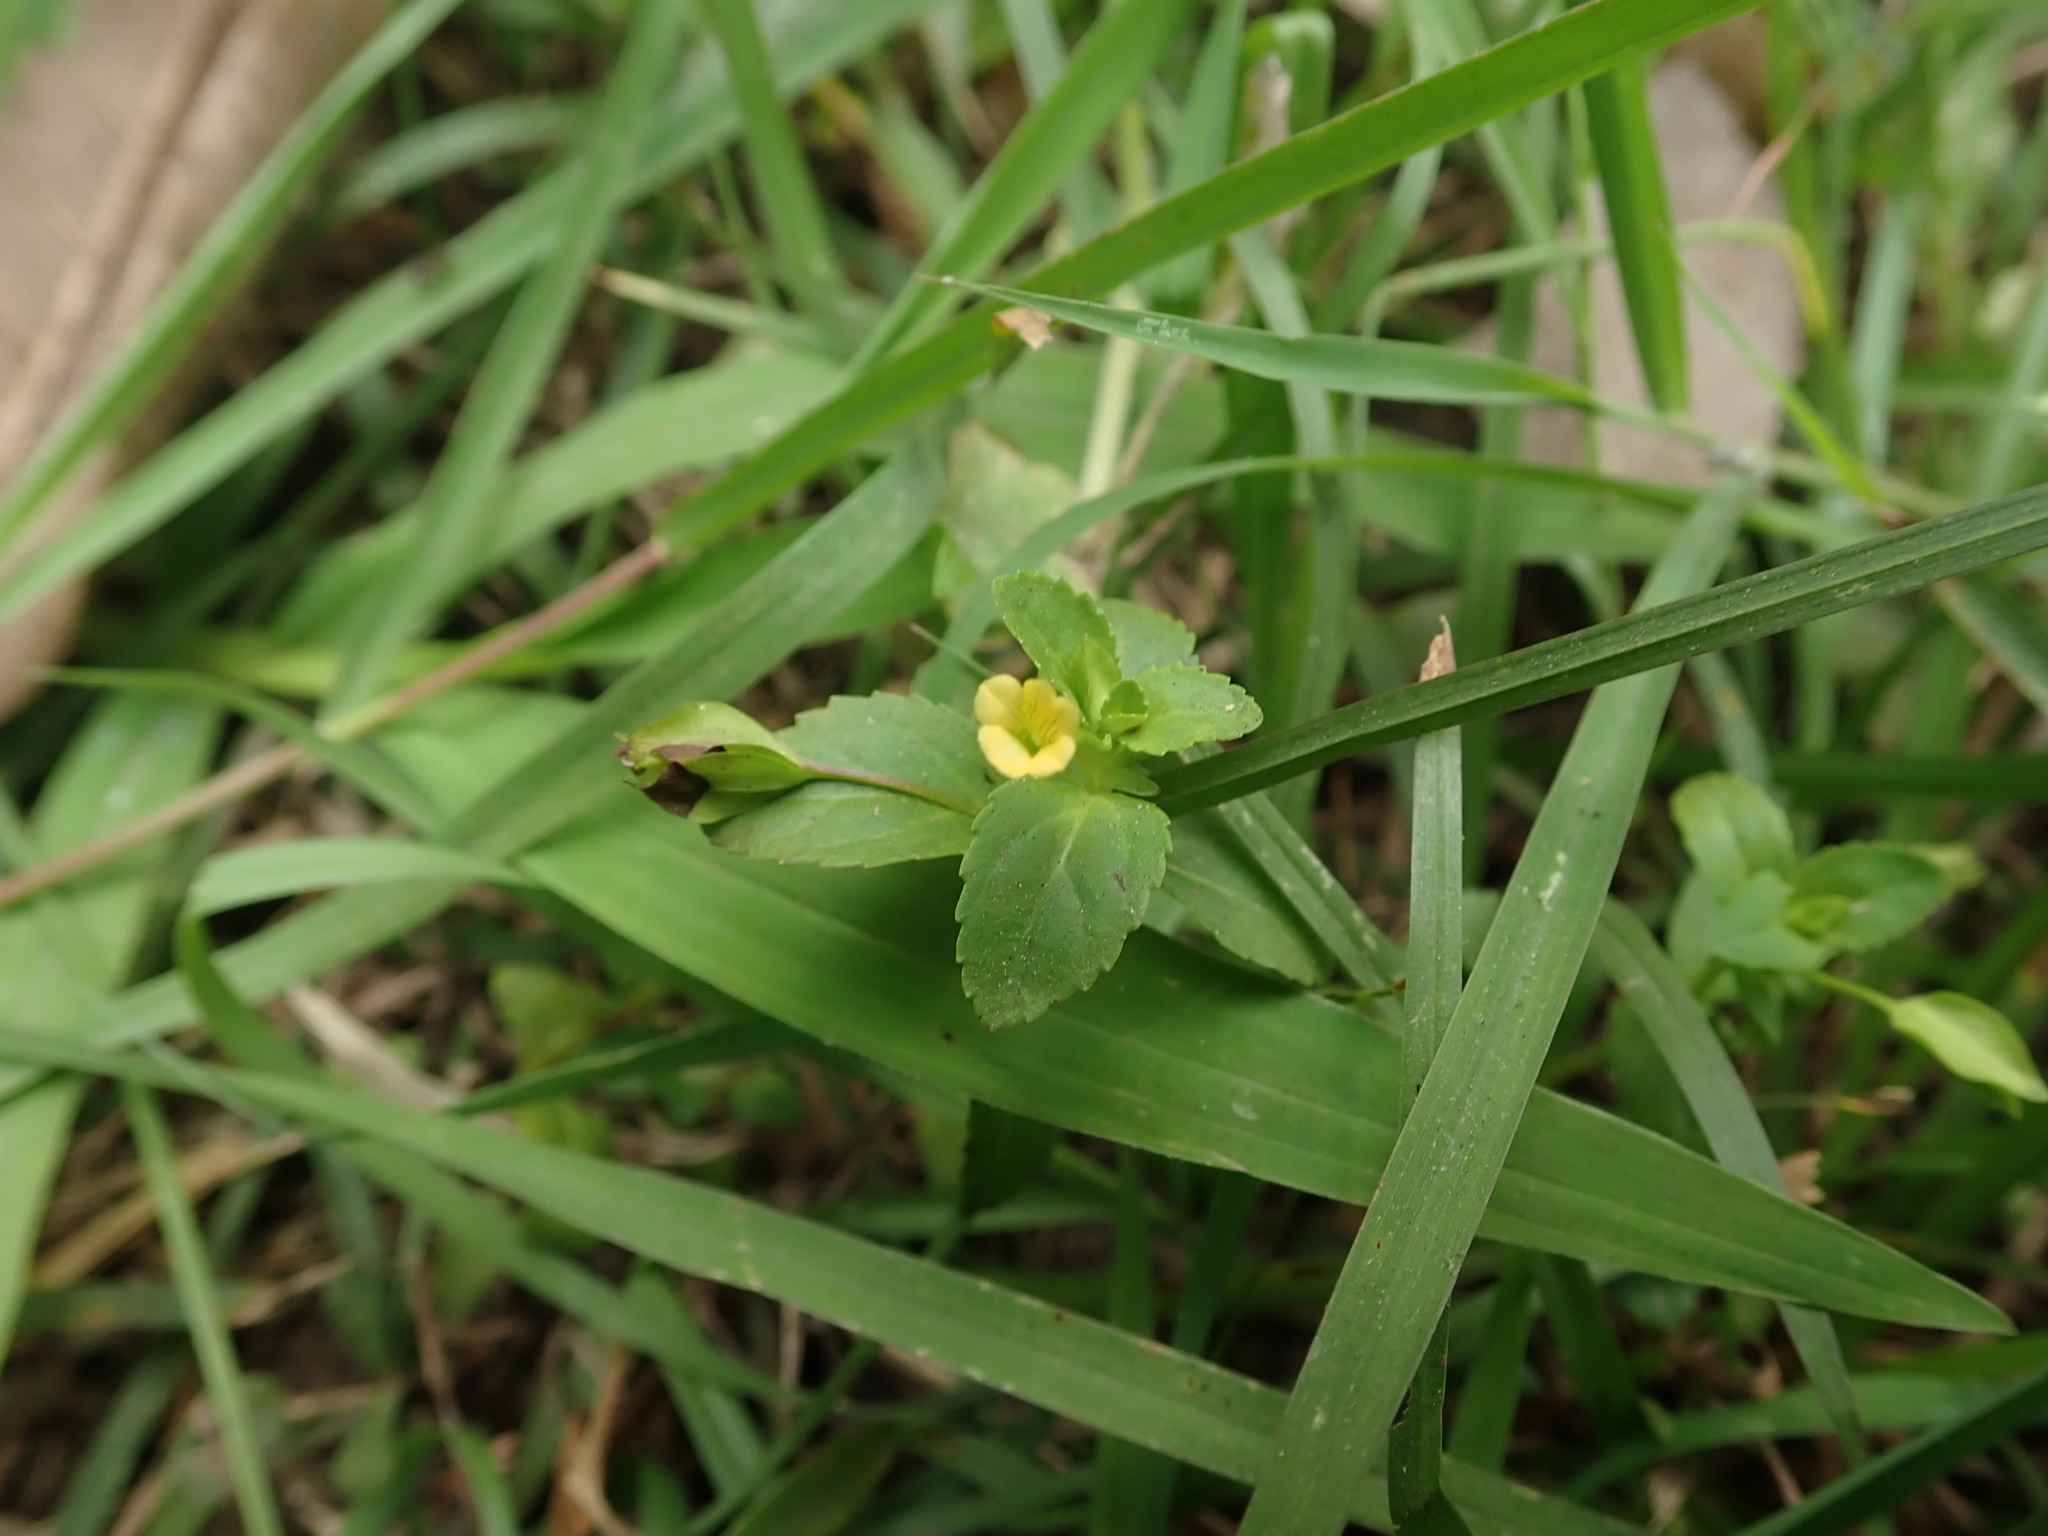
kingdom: Plantae
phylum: Tracheophyta
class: Magnoliopsida
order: Lamiales
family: Plantaginaceae
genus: Mecardonia
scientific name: Mecardonia procumbens
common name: Baby jump-up
